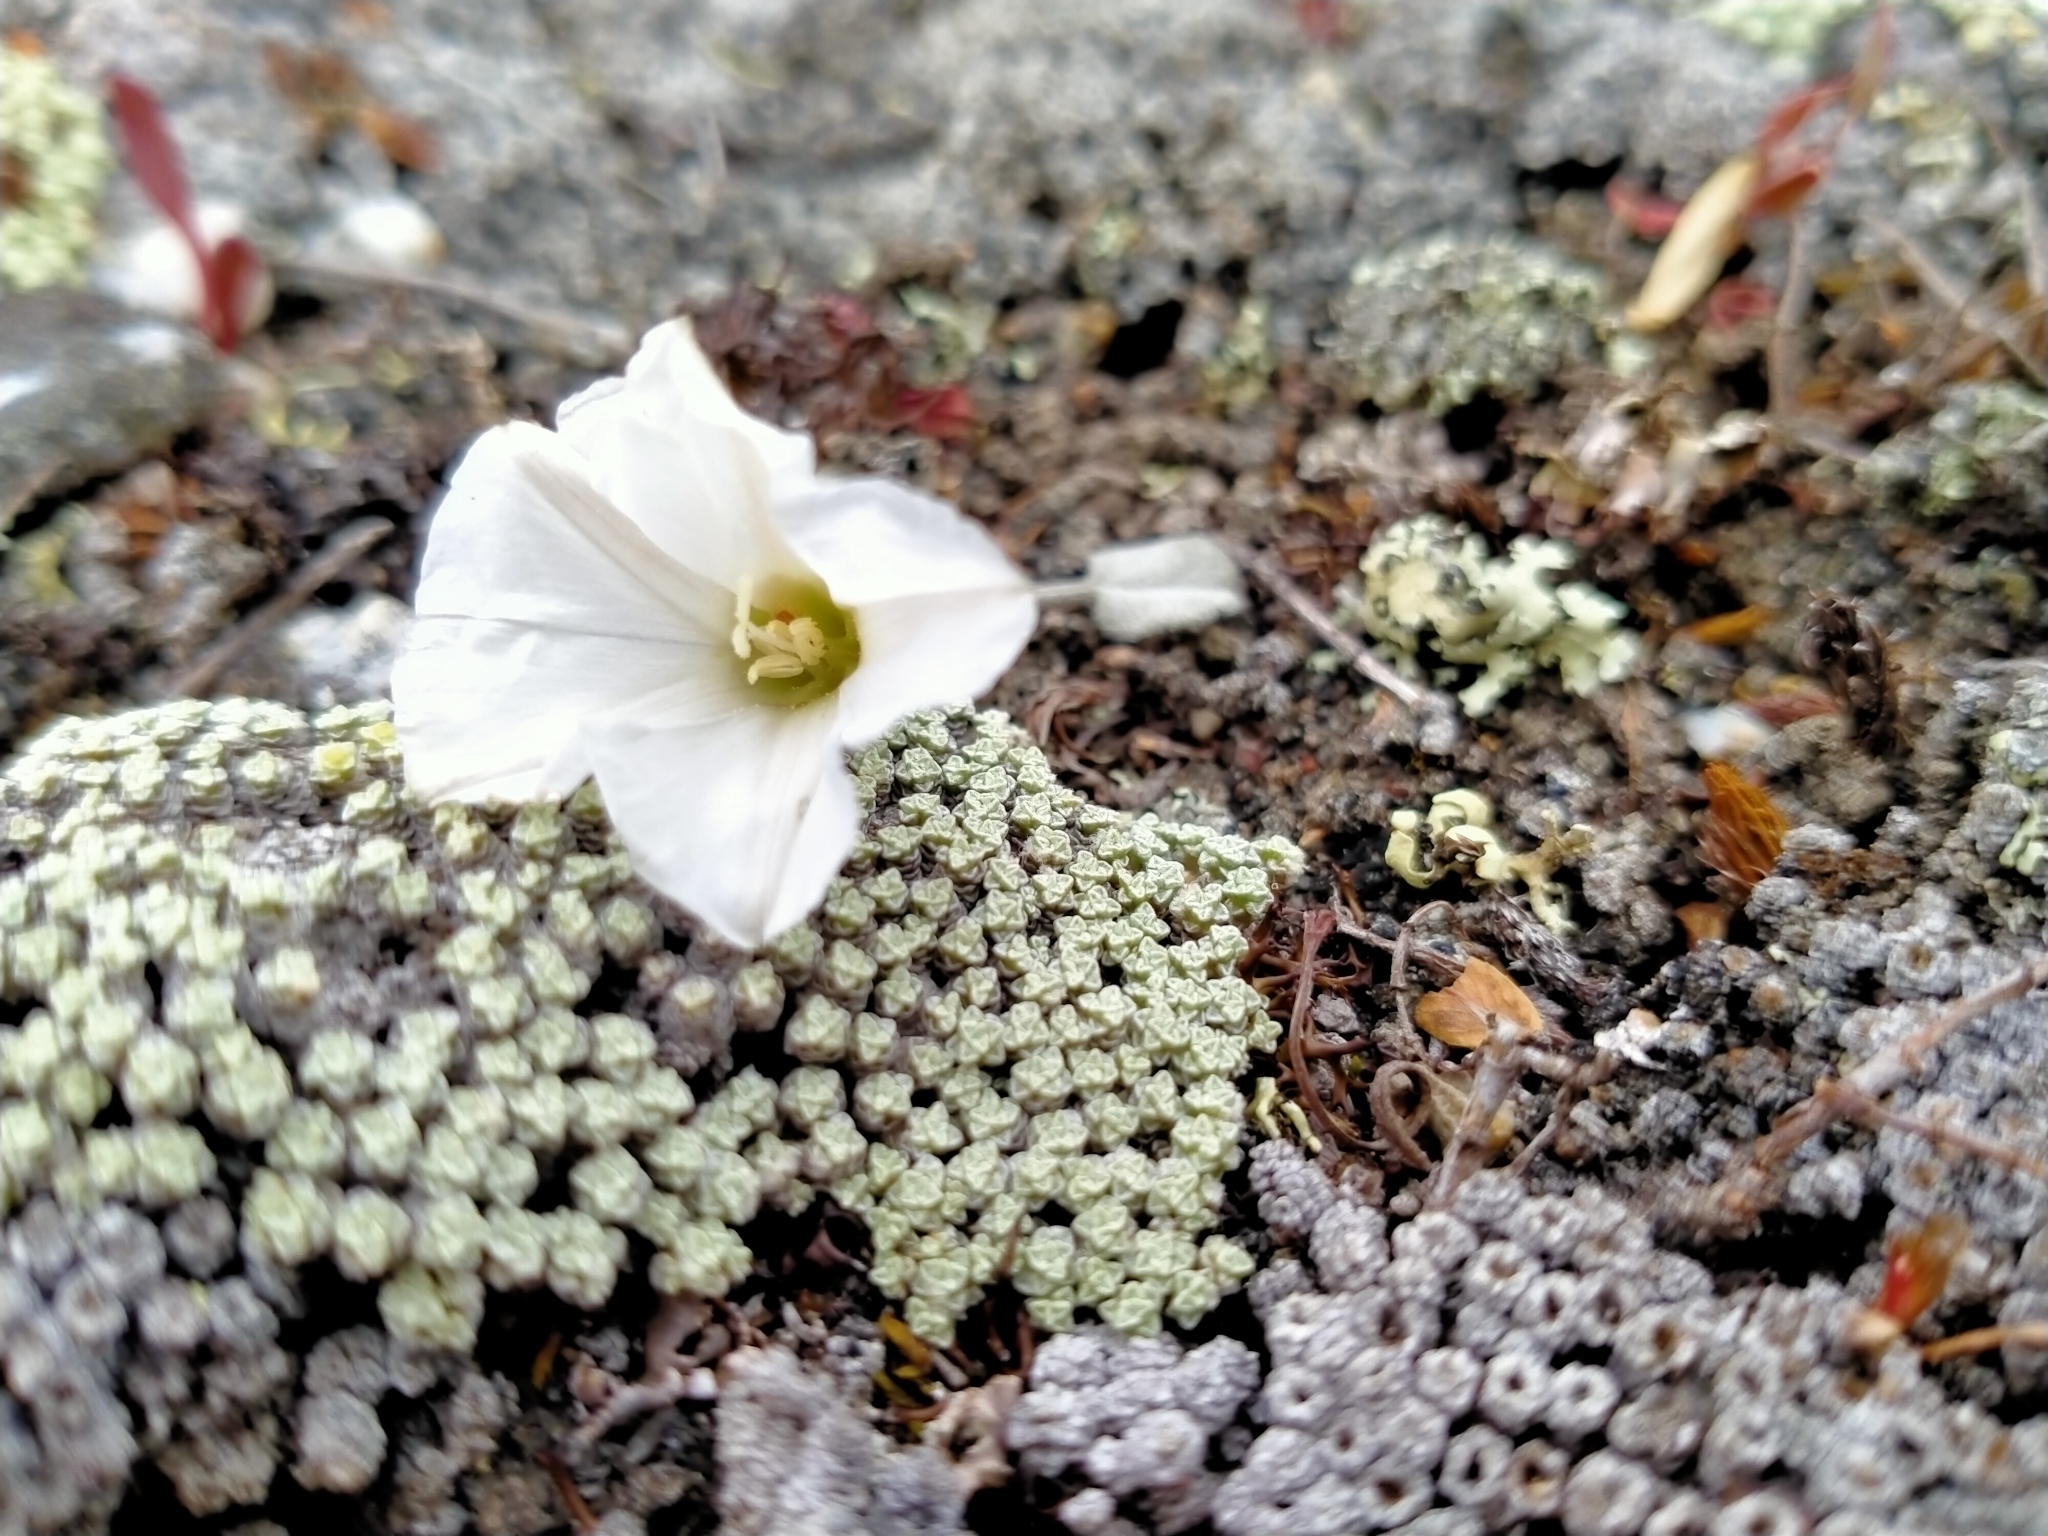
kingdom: Plantae
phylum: Tracheophyta
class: Magnoliopsida
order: Solanales
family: Convolvulaceae
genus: Convolvulus
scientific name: Convolvulus verecundus
